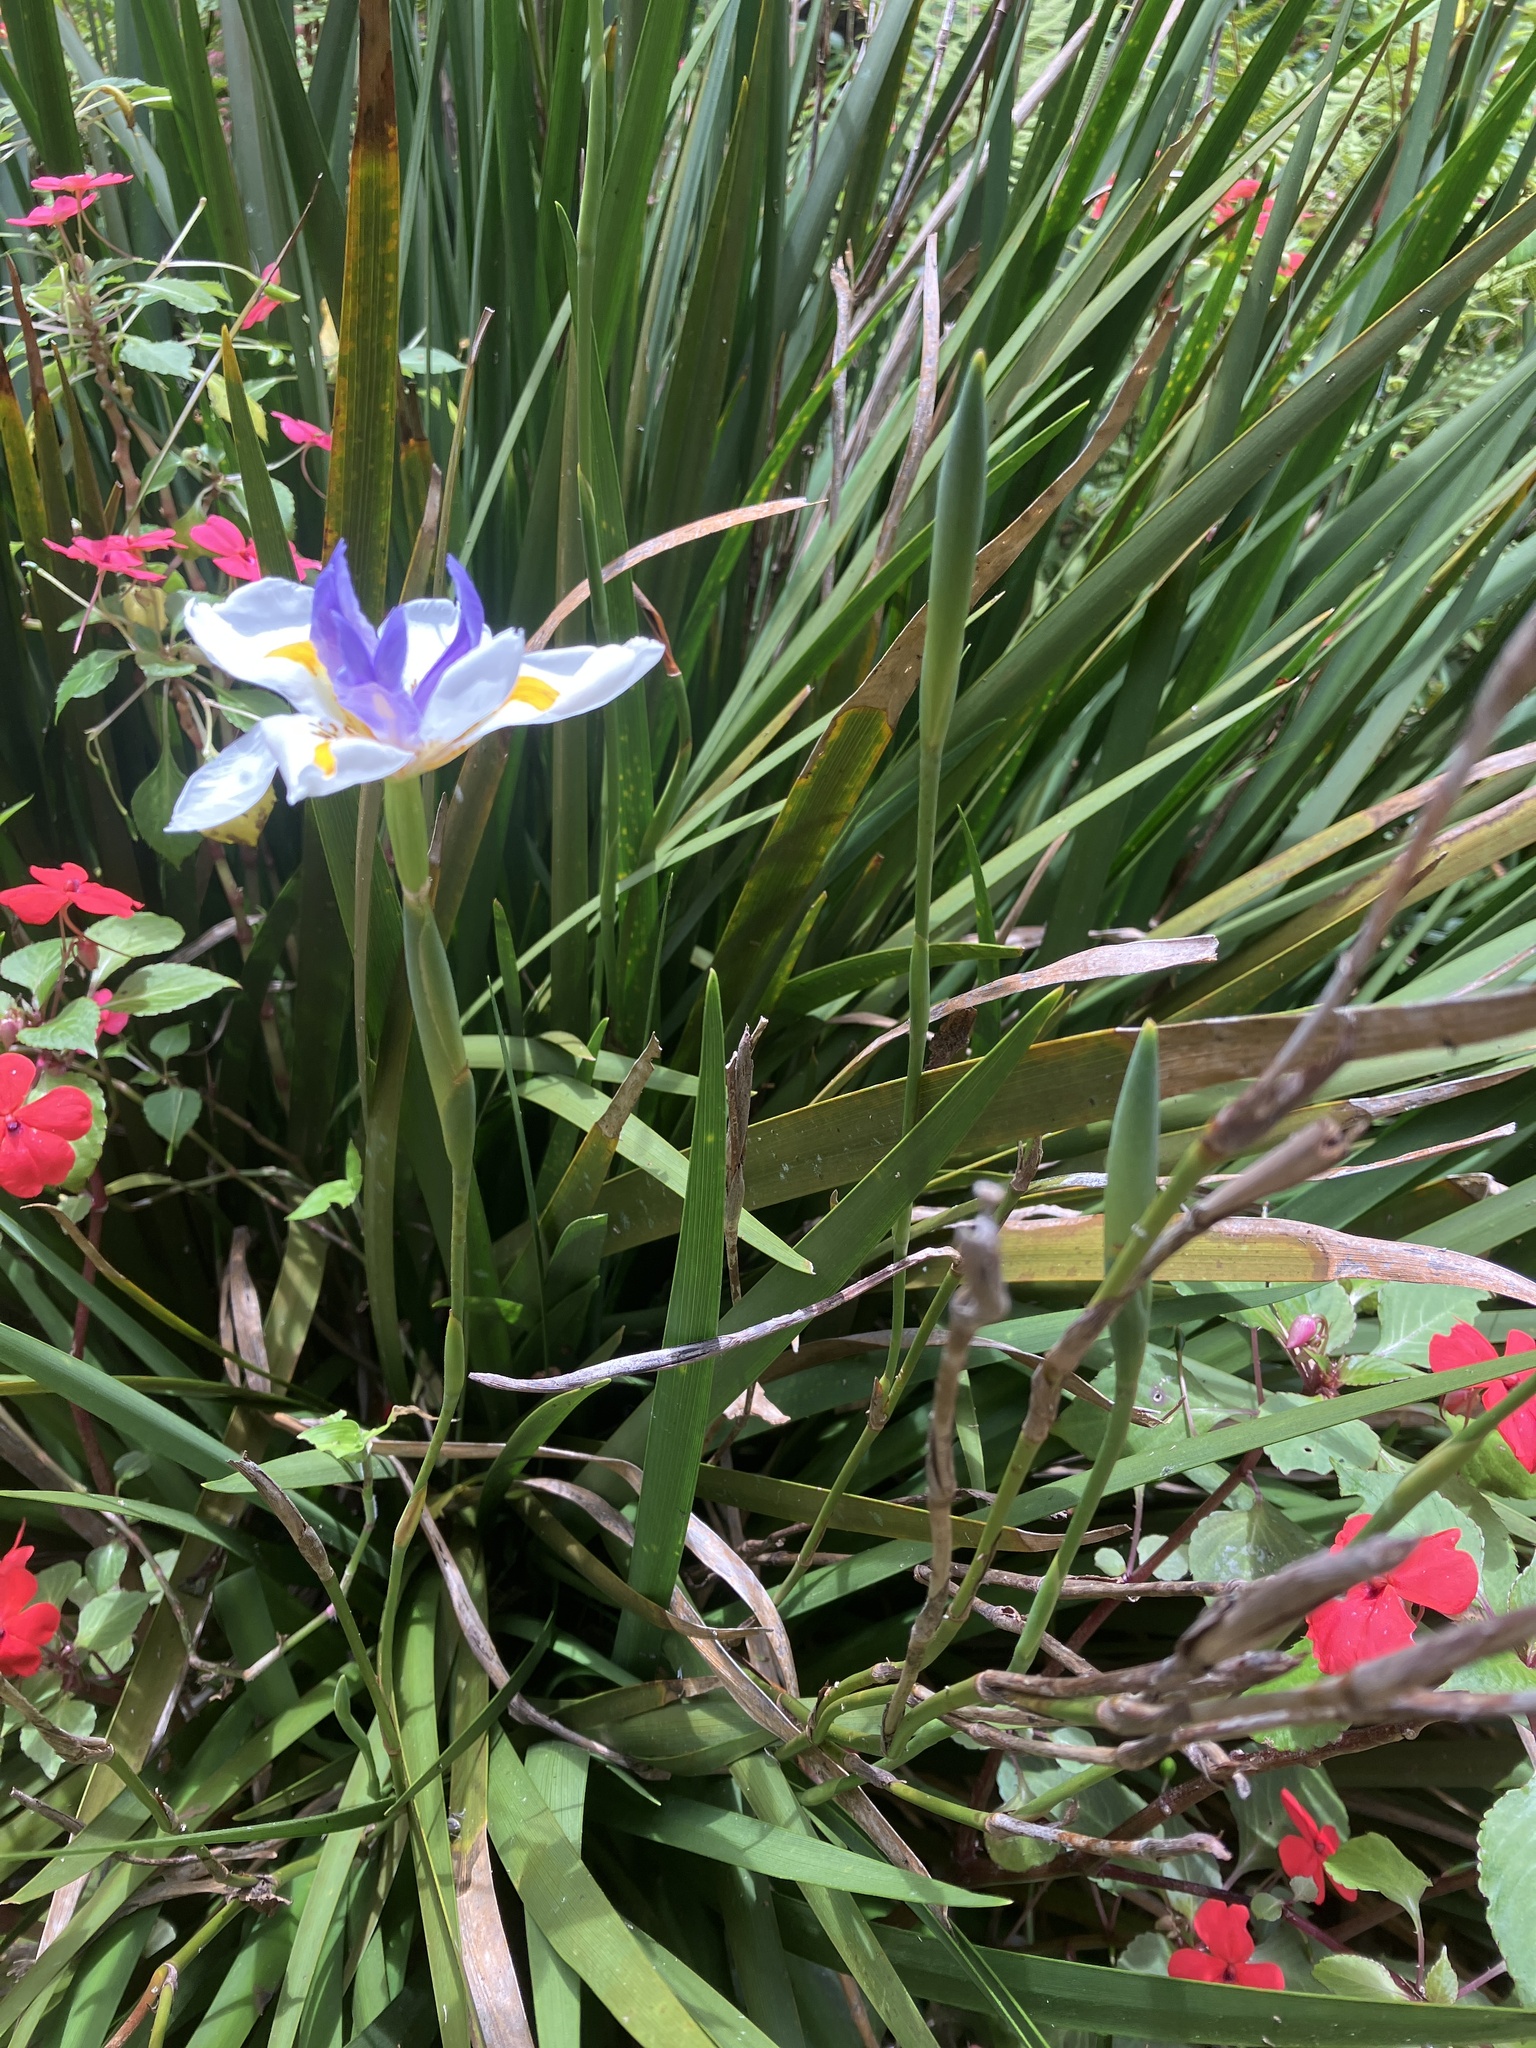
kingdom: Plantae
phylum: Tracheophyta
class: Liliopsida
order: Asparagales
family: Iridaceae
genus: Dietes
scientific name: Dietes grandiflora
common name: Wild iris
